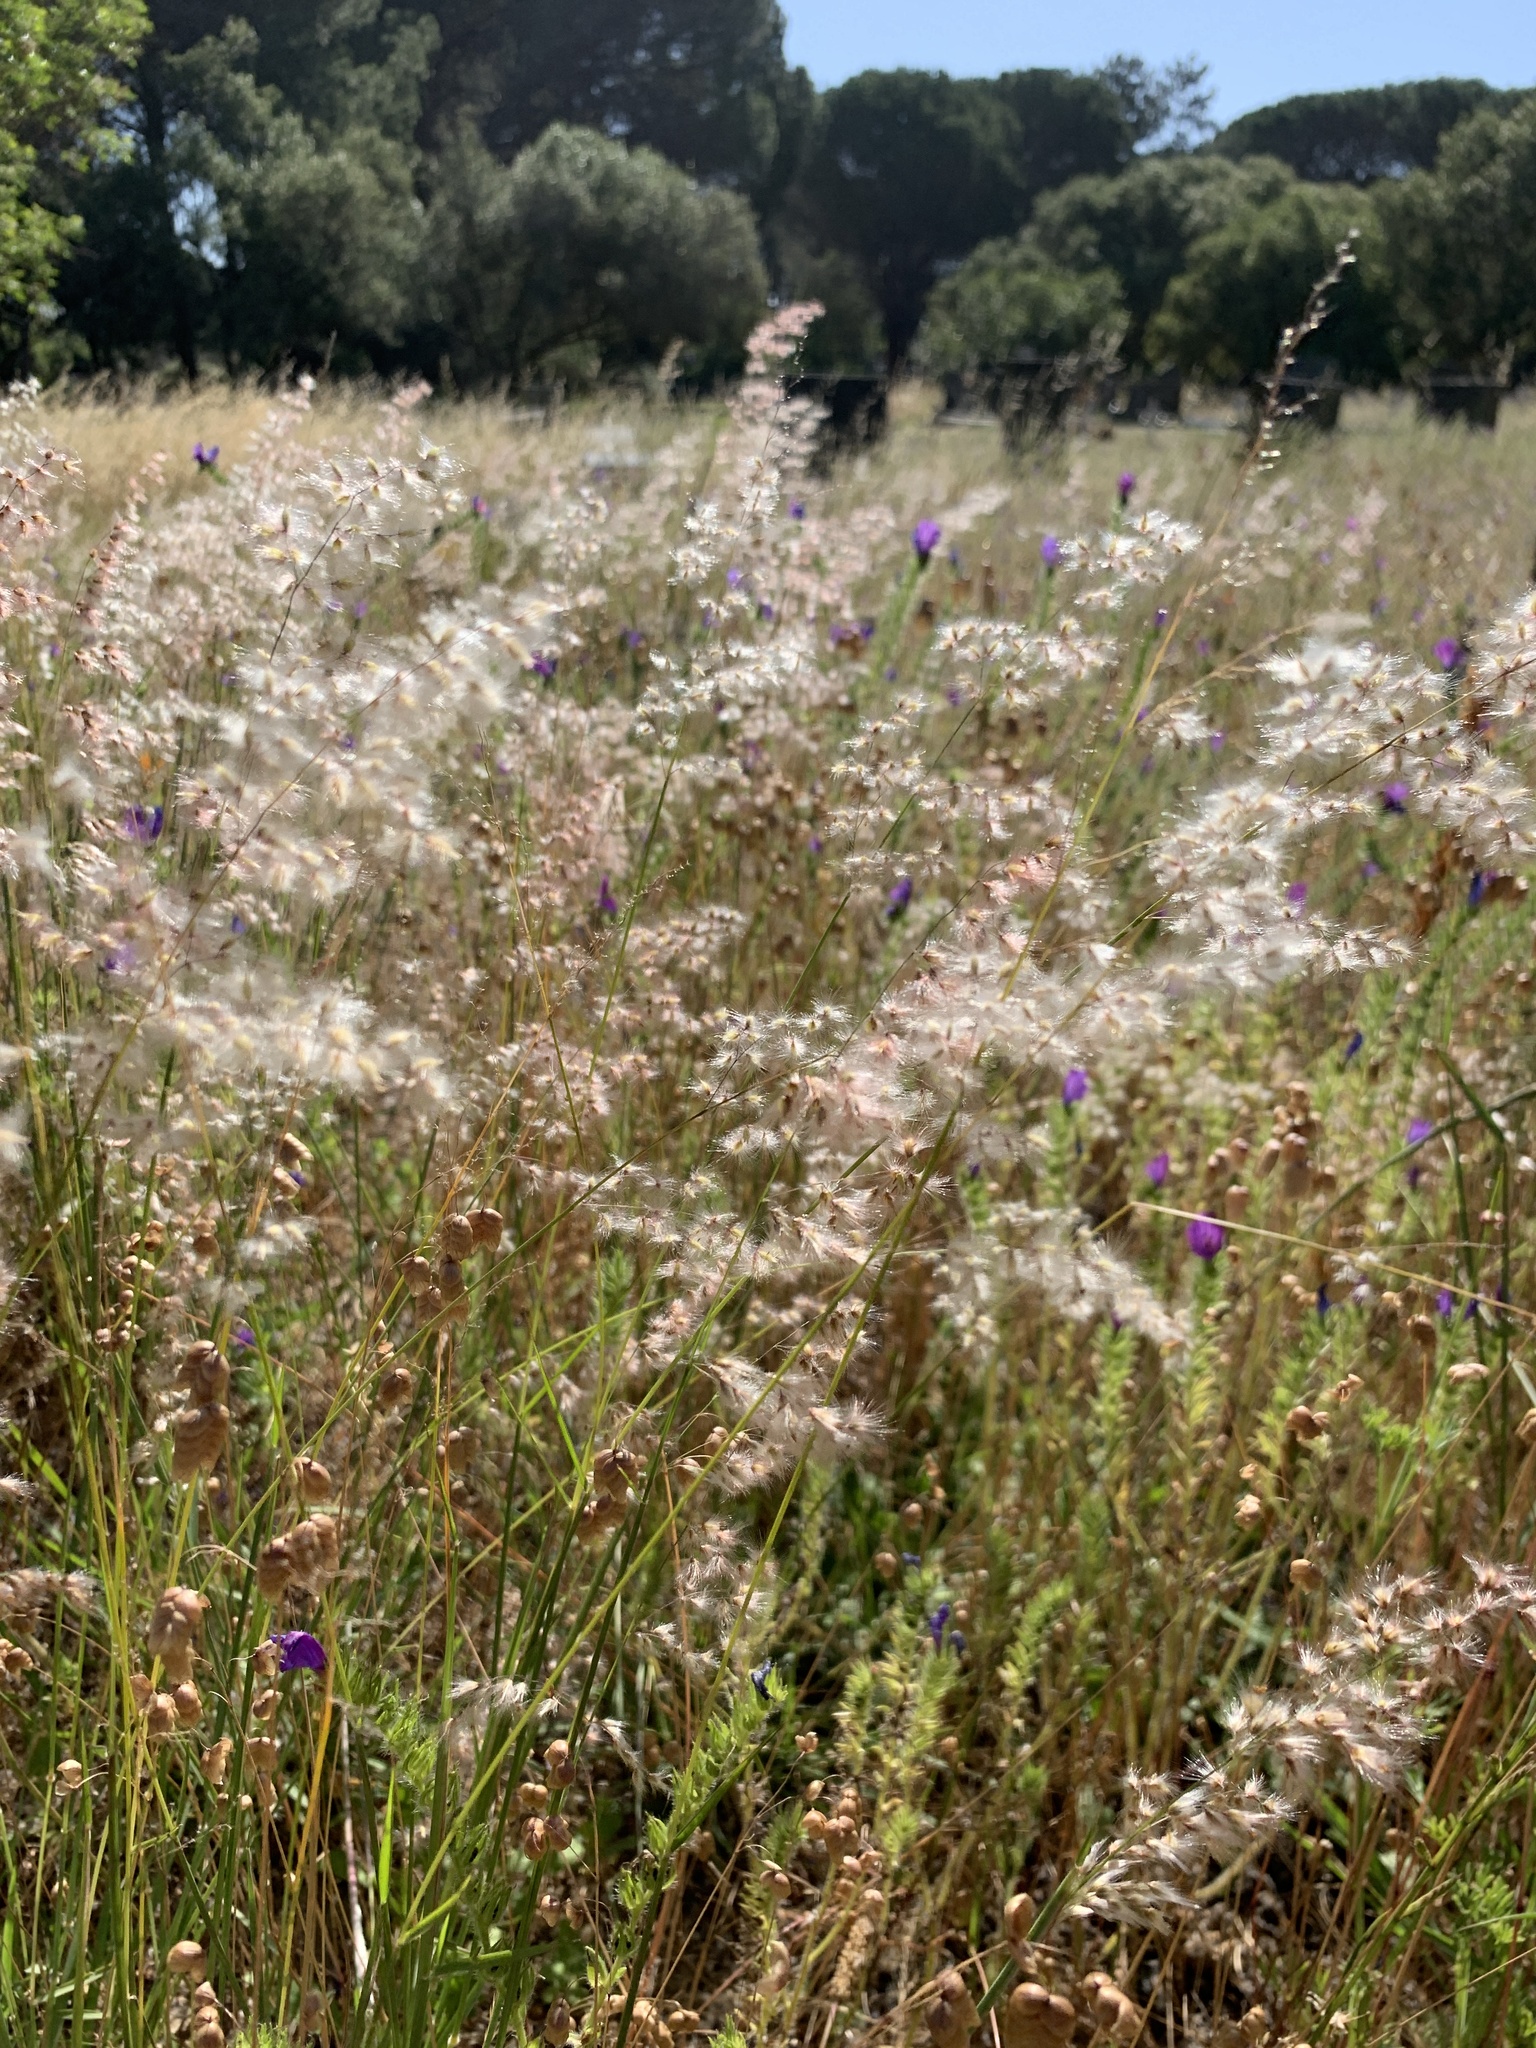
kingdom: Plantae
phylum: Tracheophyta
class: Liliopsida
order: Poales
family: Poaceae
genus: Melinis
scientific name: Melinis repens
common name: Rose natal grass
